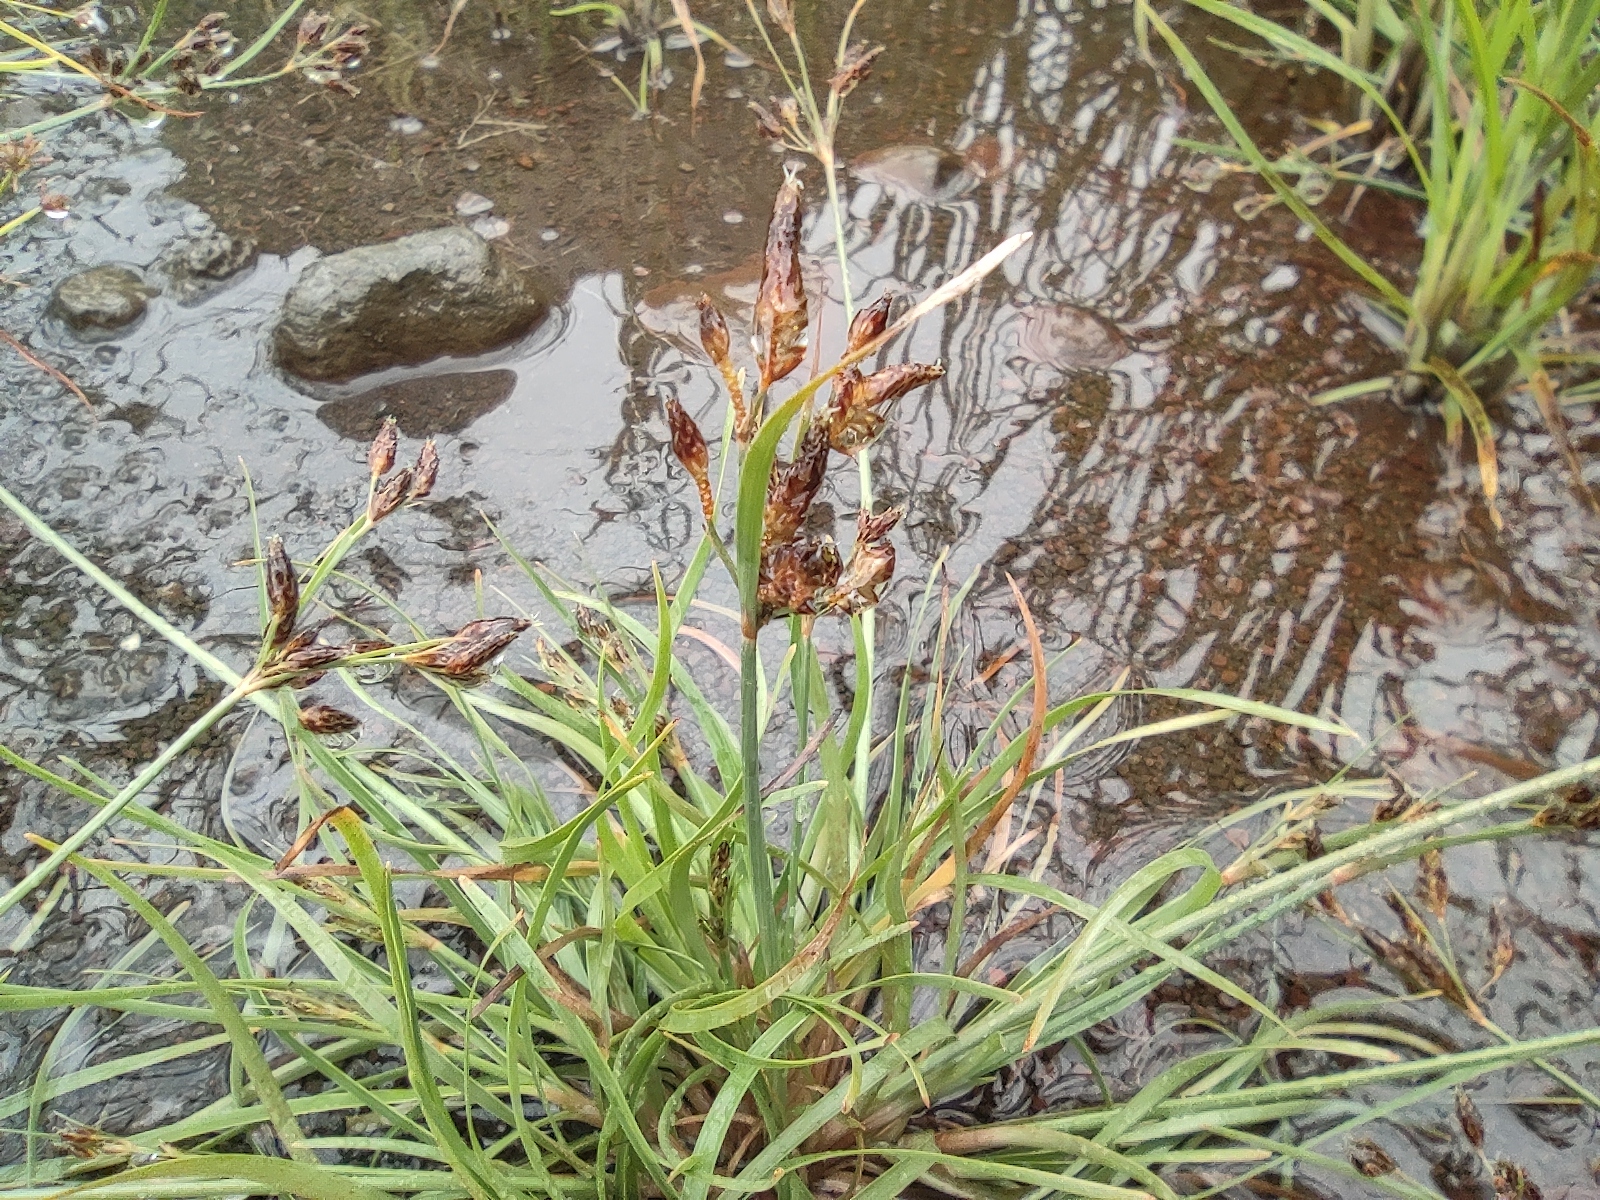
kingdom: Plantae
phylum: Tracheophyta
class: Liliopsida
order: Poales
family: Cyperaceae
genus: Fimbristylis
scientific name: Fimbristylis dichotoma
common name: Forked fimbry
